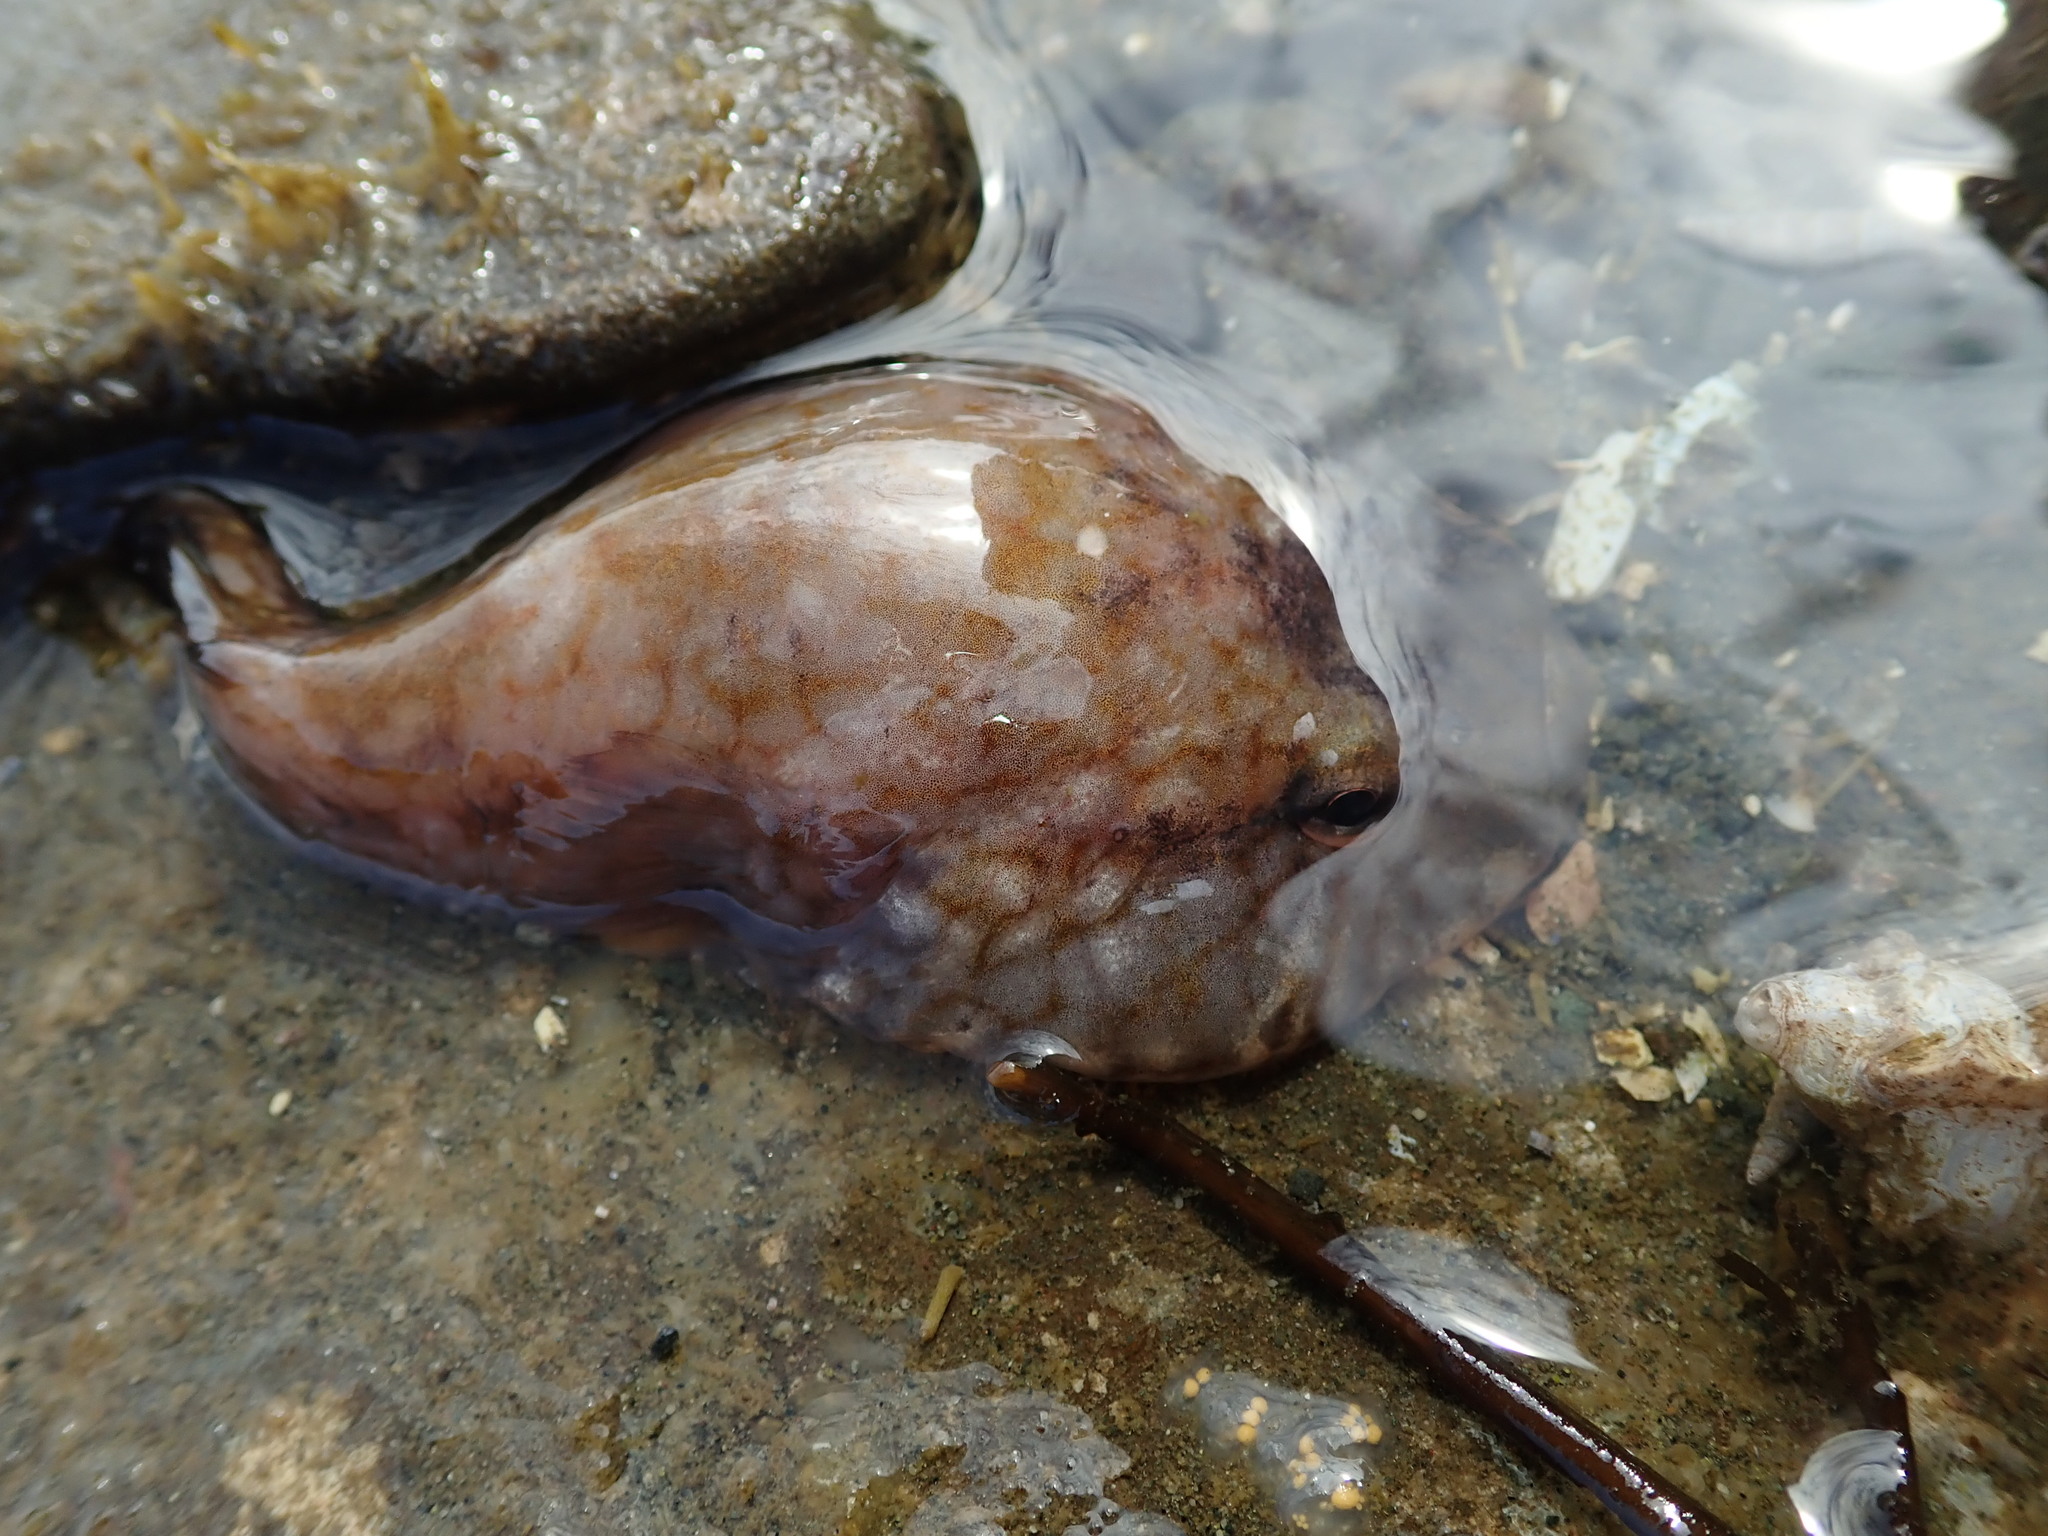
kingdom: Animalia
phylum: Chordata
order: Gobiesociformes
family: Gobiesocidae
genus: Gobiesox
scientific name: Gobiesox maeandricus
